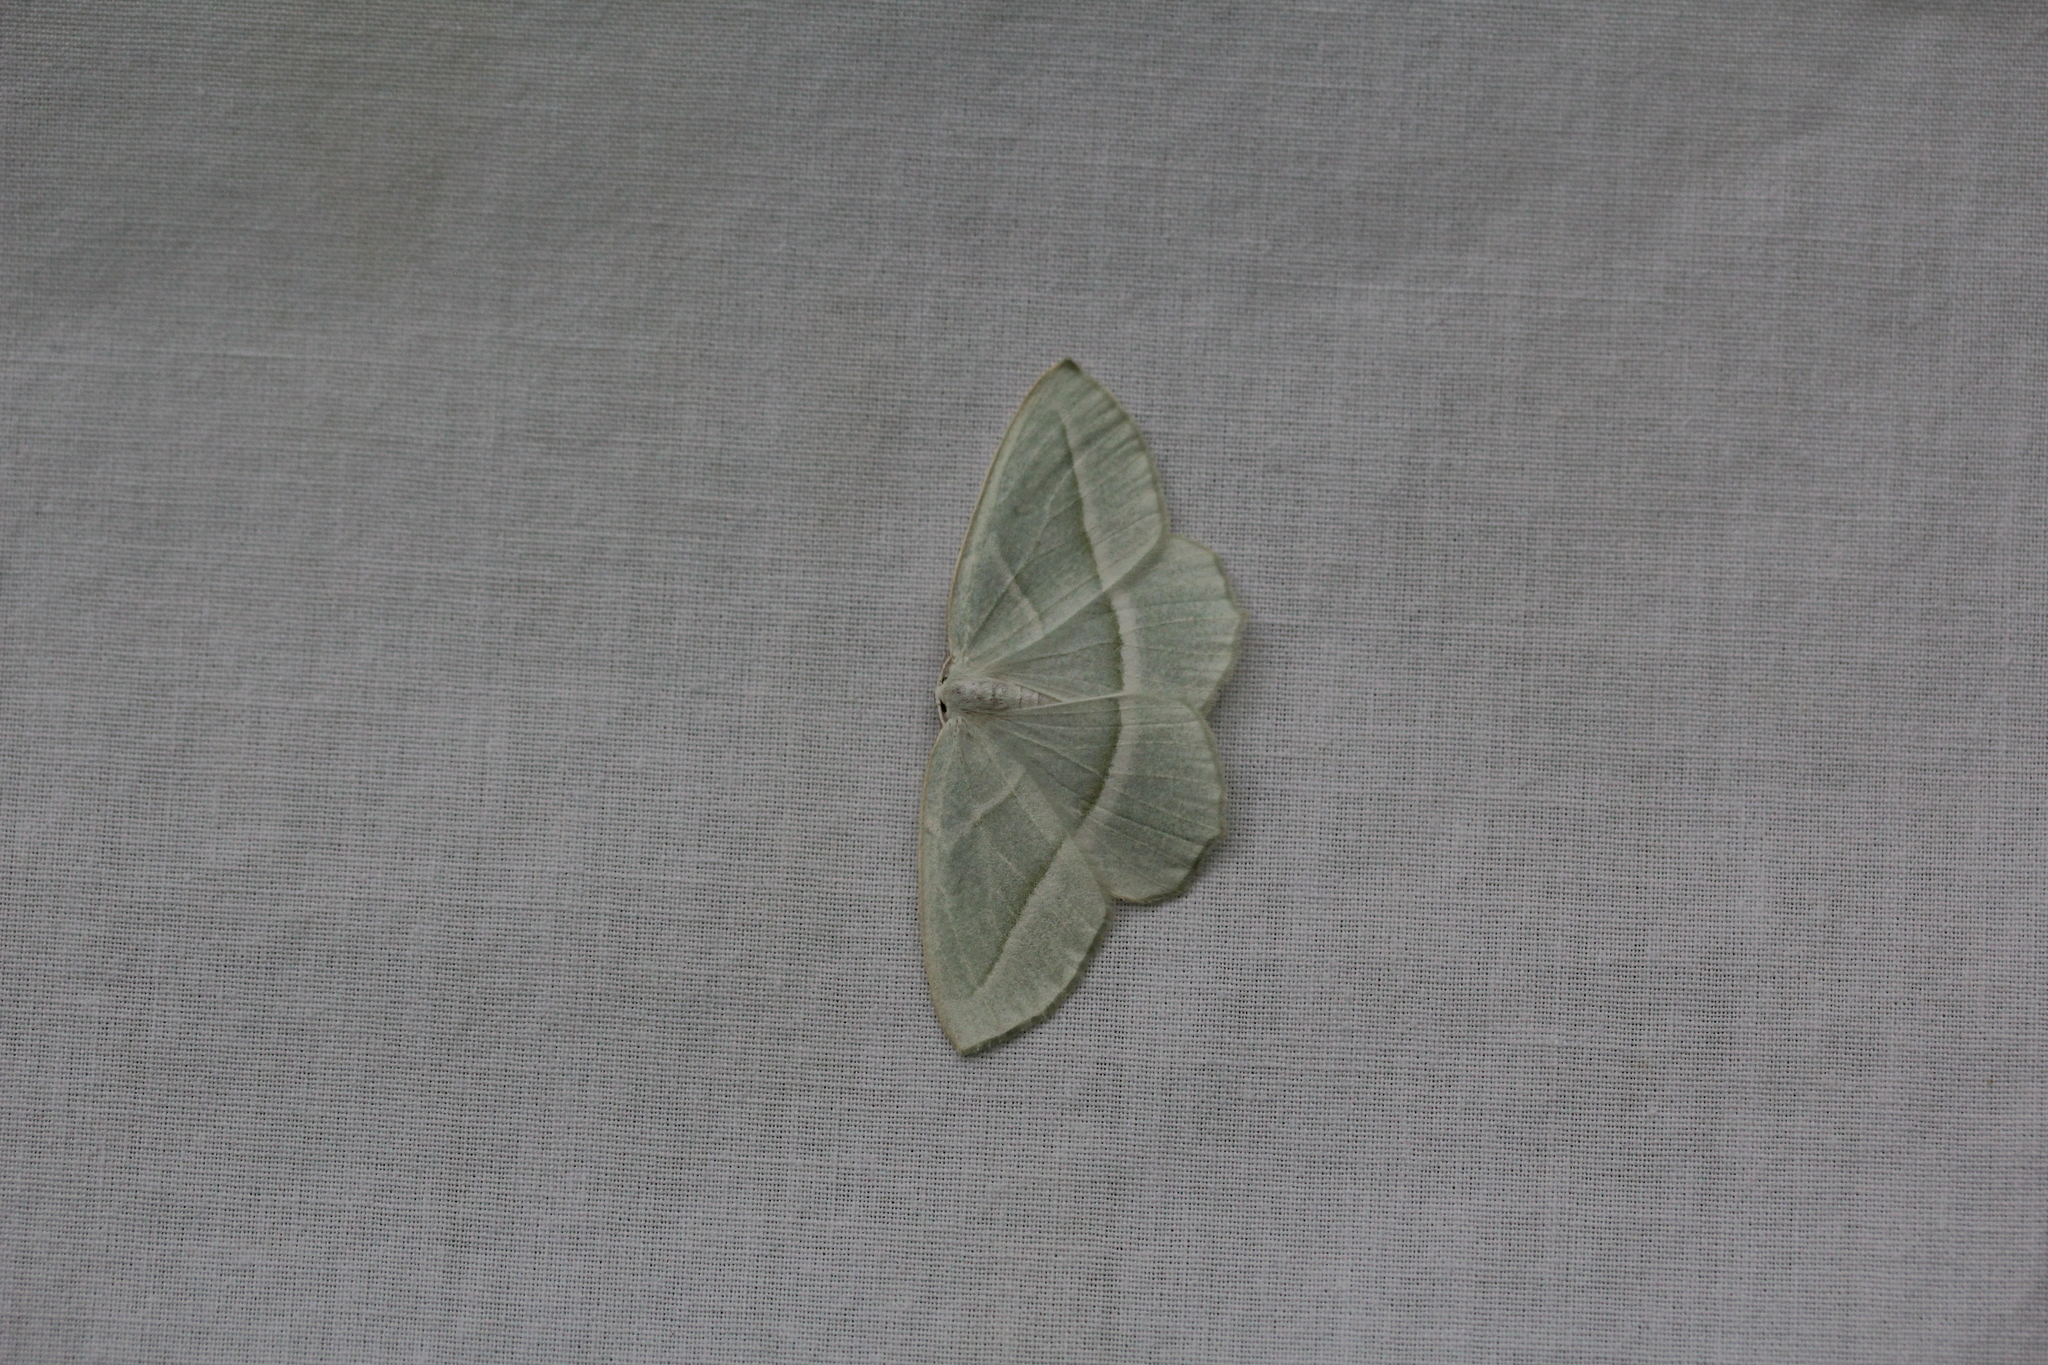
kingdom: Animalia
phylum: Arthropoda
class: Insecta
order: Lepidoptera
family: Geometridae
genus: Campaea
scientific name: Campaea perlata
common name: Fringed looper
